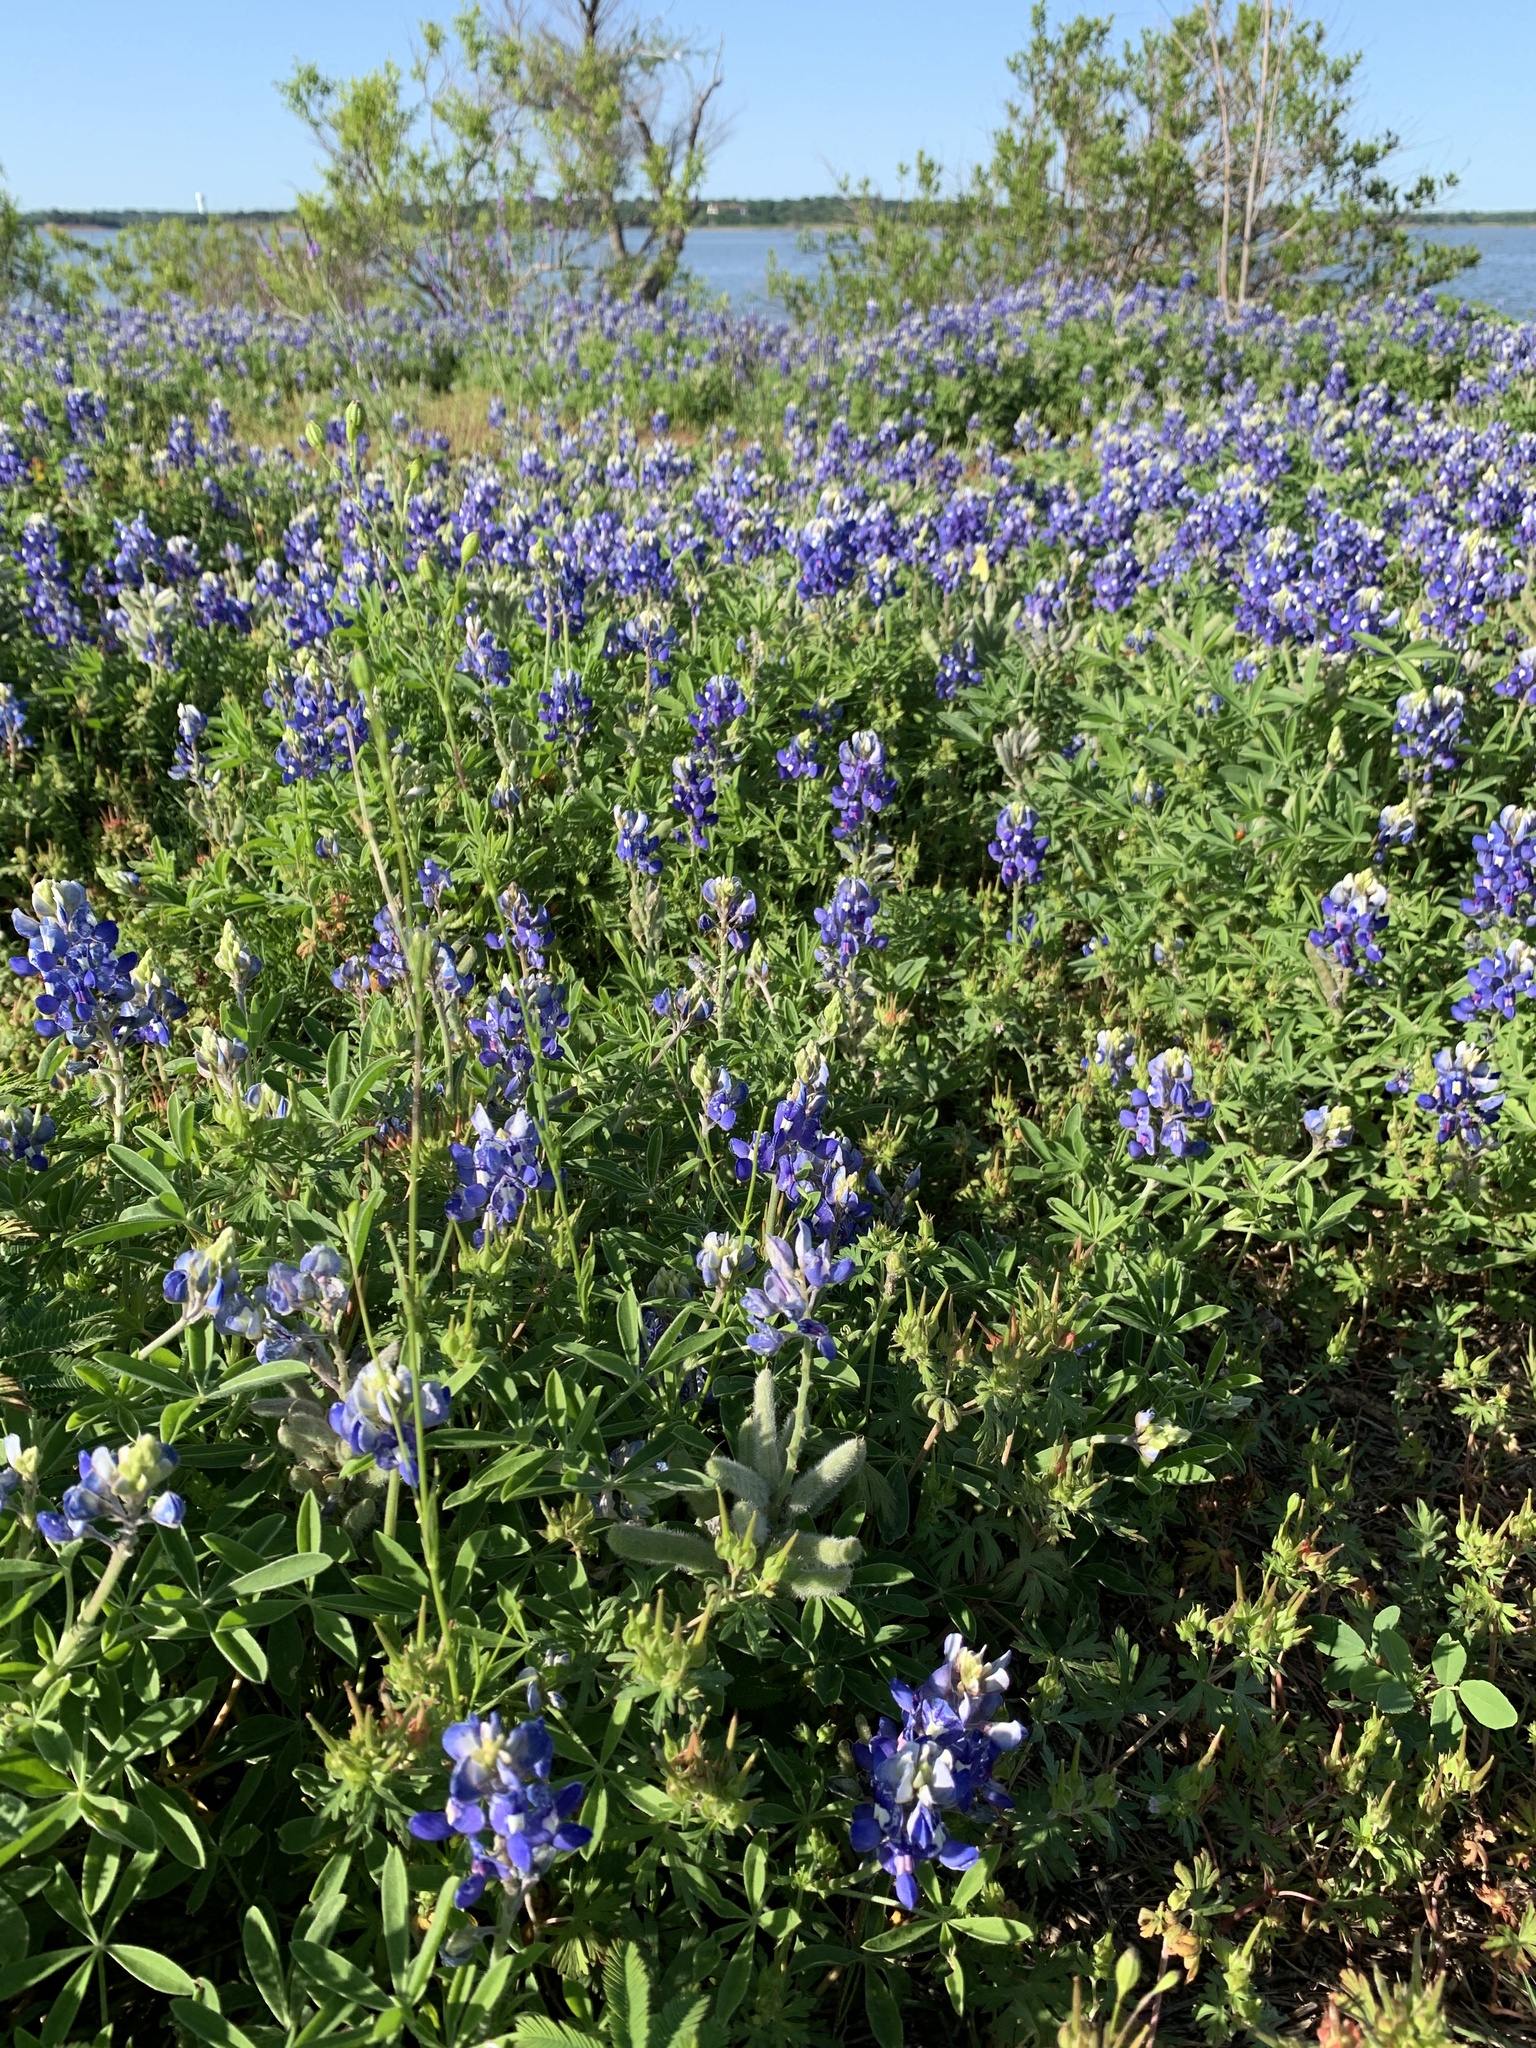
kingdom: Plantae
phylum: Tracheophyta
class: Magnoliopsida
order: Fabales
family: Fabaceae
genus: Lupinus
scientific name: Lupinus texensis
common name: Texas bluebonnet
